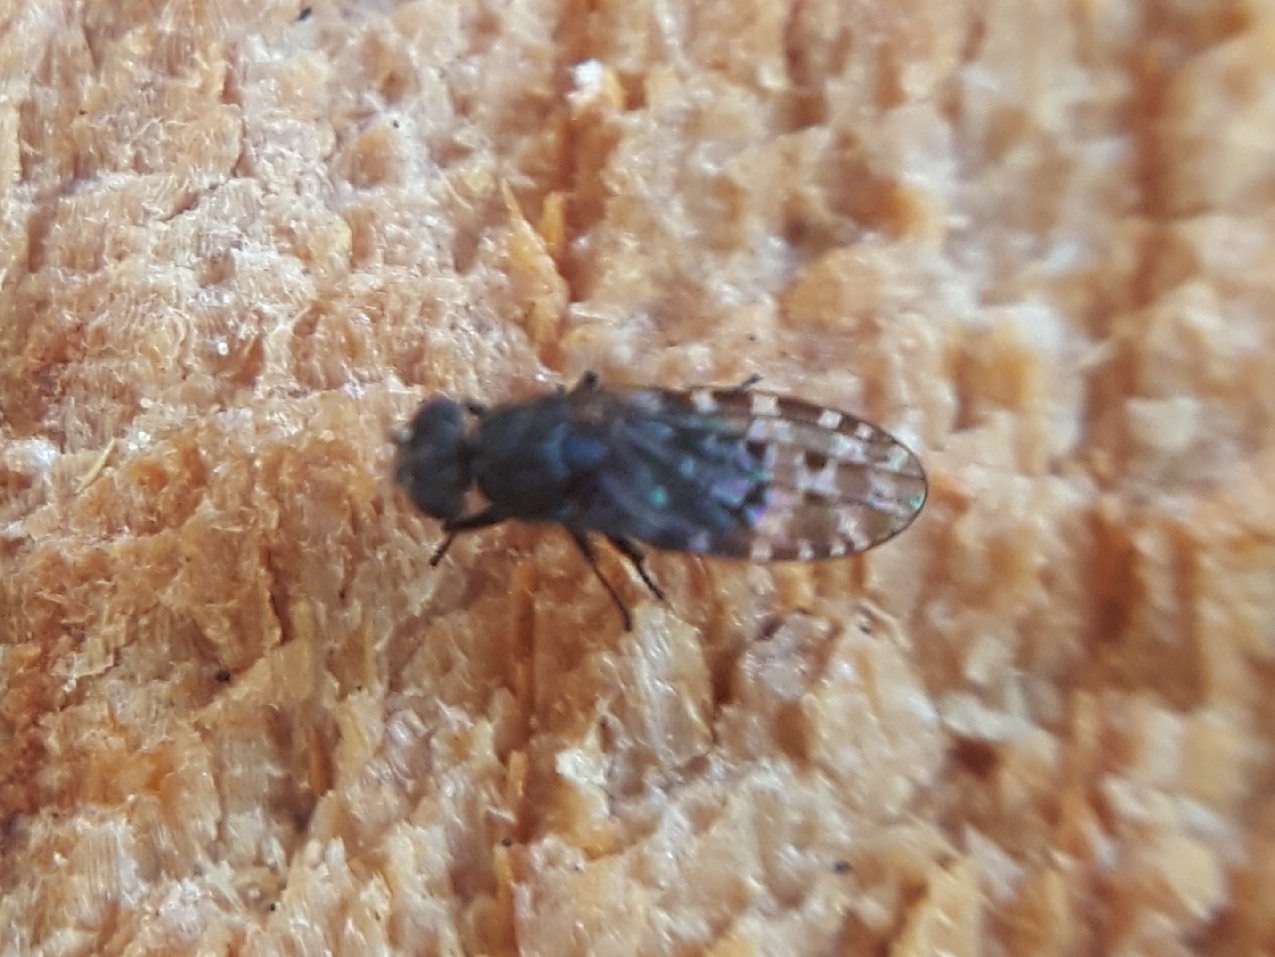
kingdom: Animalia
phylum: Arthropoda
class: Insecta
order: Diptera
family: Ephydridae
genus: Limnellia
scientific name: Limnellia turneri
